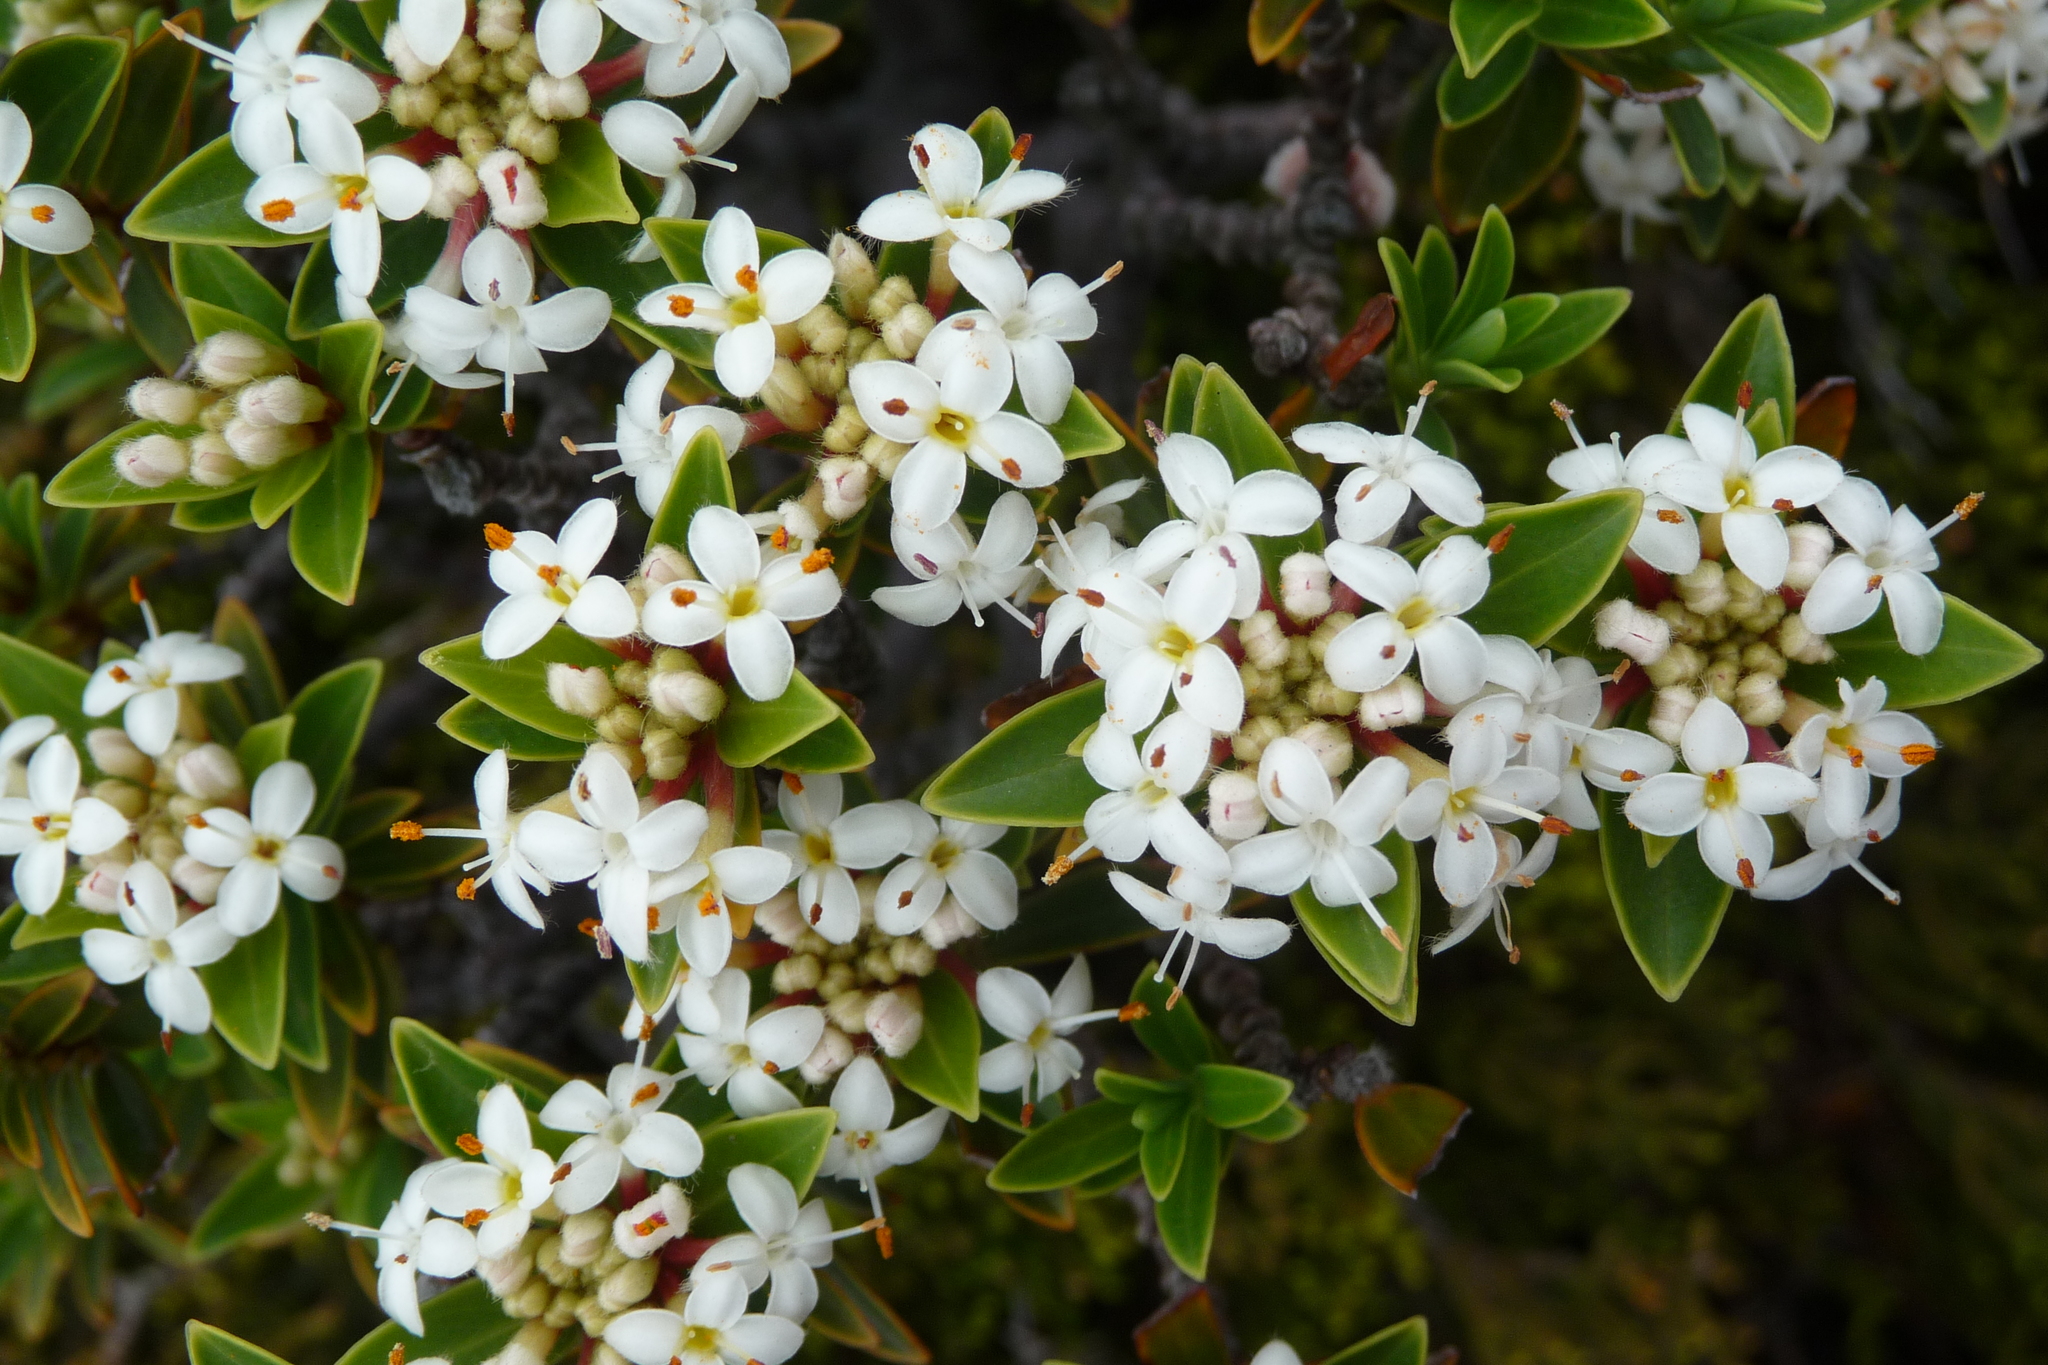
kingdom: Plantae
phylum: Tracheophyta
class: Magnoliopsida
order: Malvales
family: Thymelaeaceae
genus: Pimelea
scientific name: Pimelea gnidia
